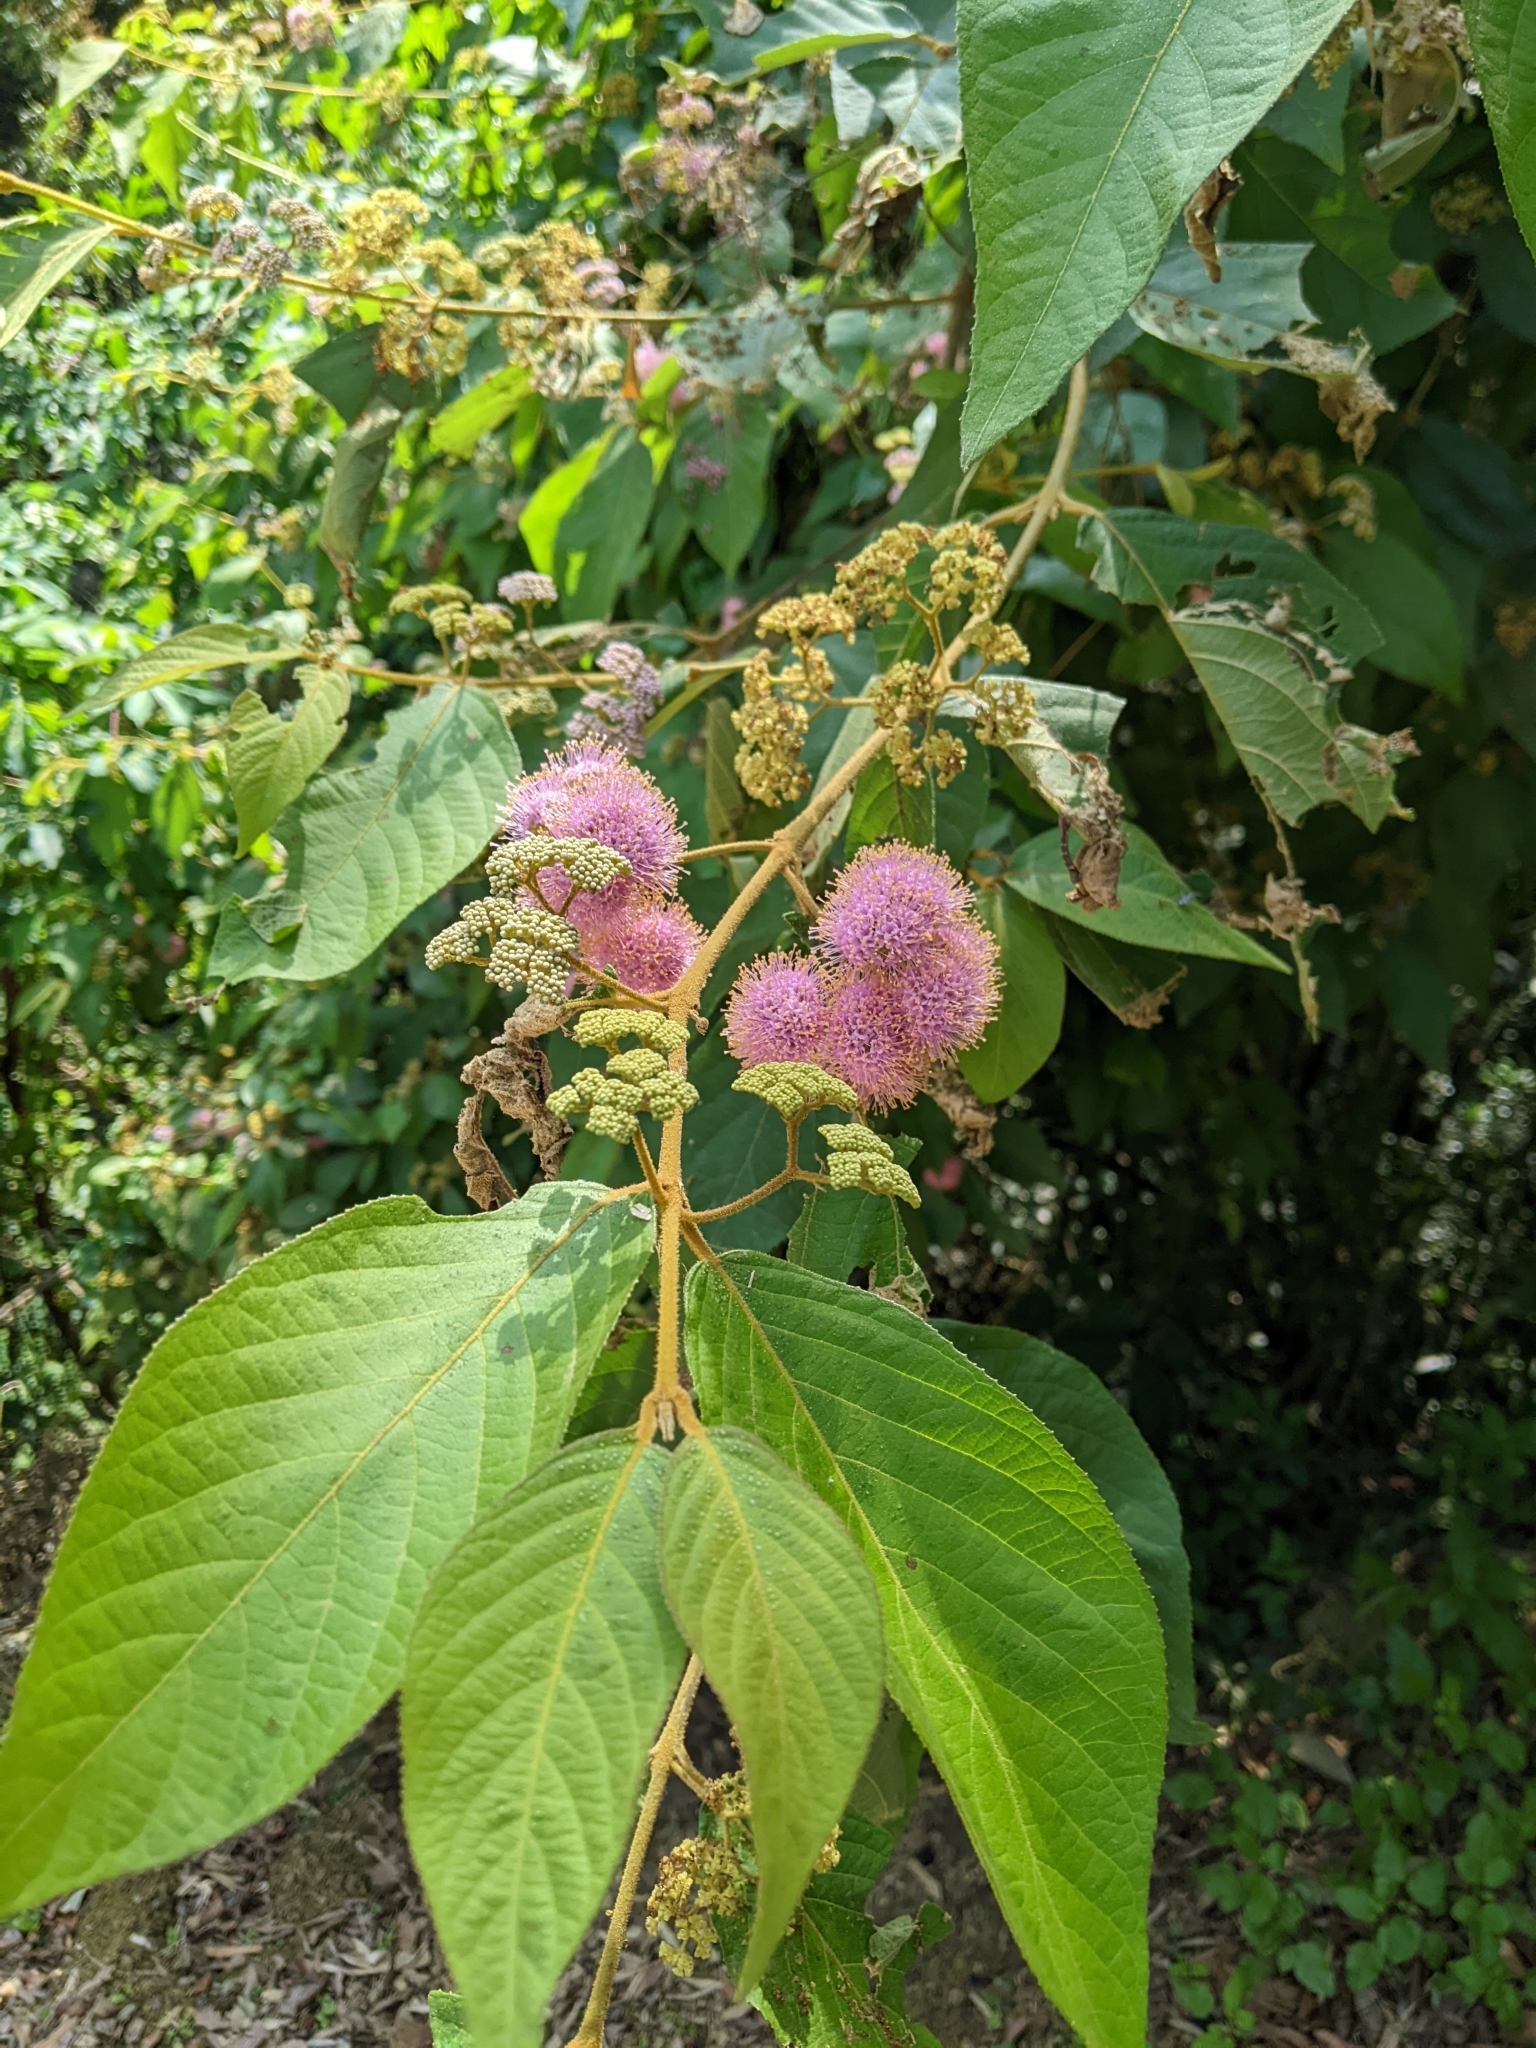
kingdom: Plantae
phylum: Tracheophyta
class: Magnoliopsida
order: Lamiales
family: Lamiaceae
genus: Callicarpa
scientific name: Callicarpa pedunculata
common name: Velvetleaf
